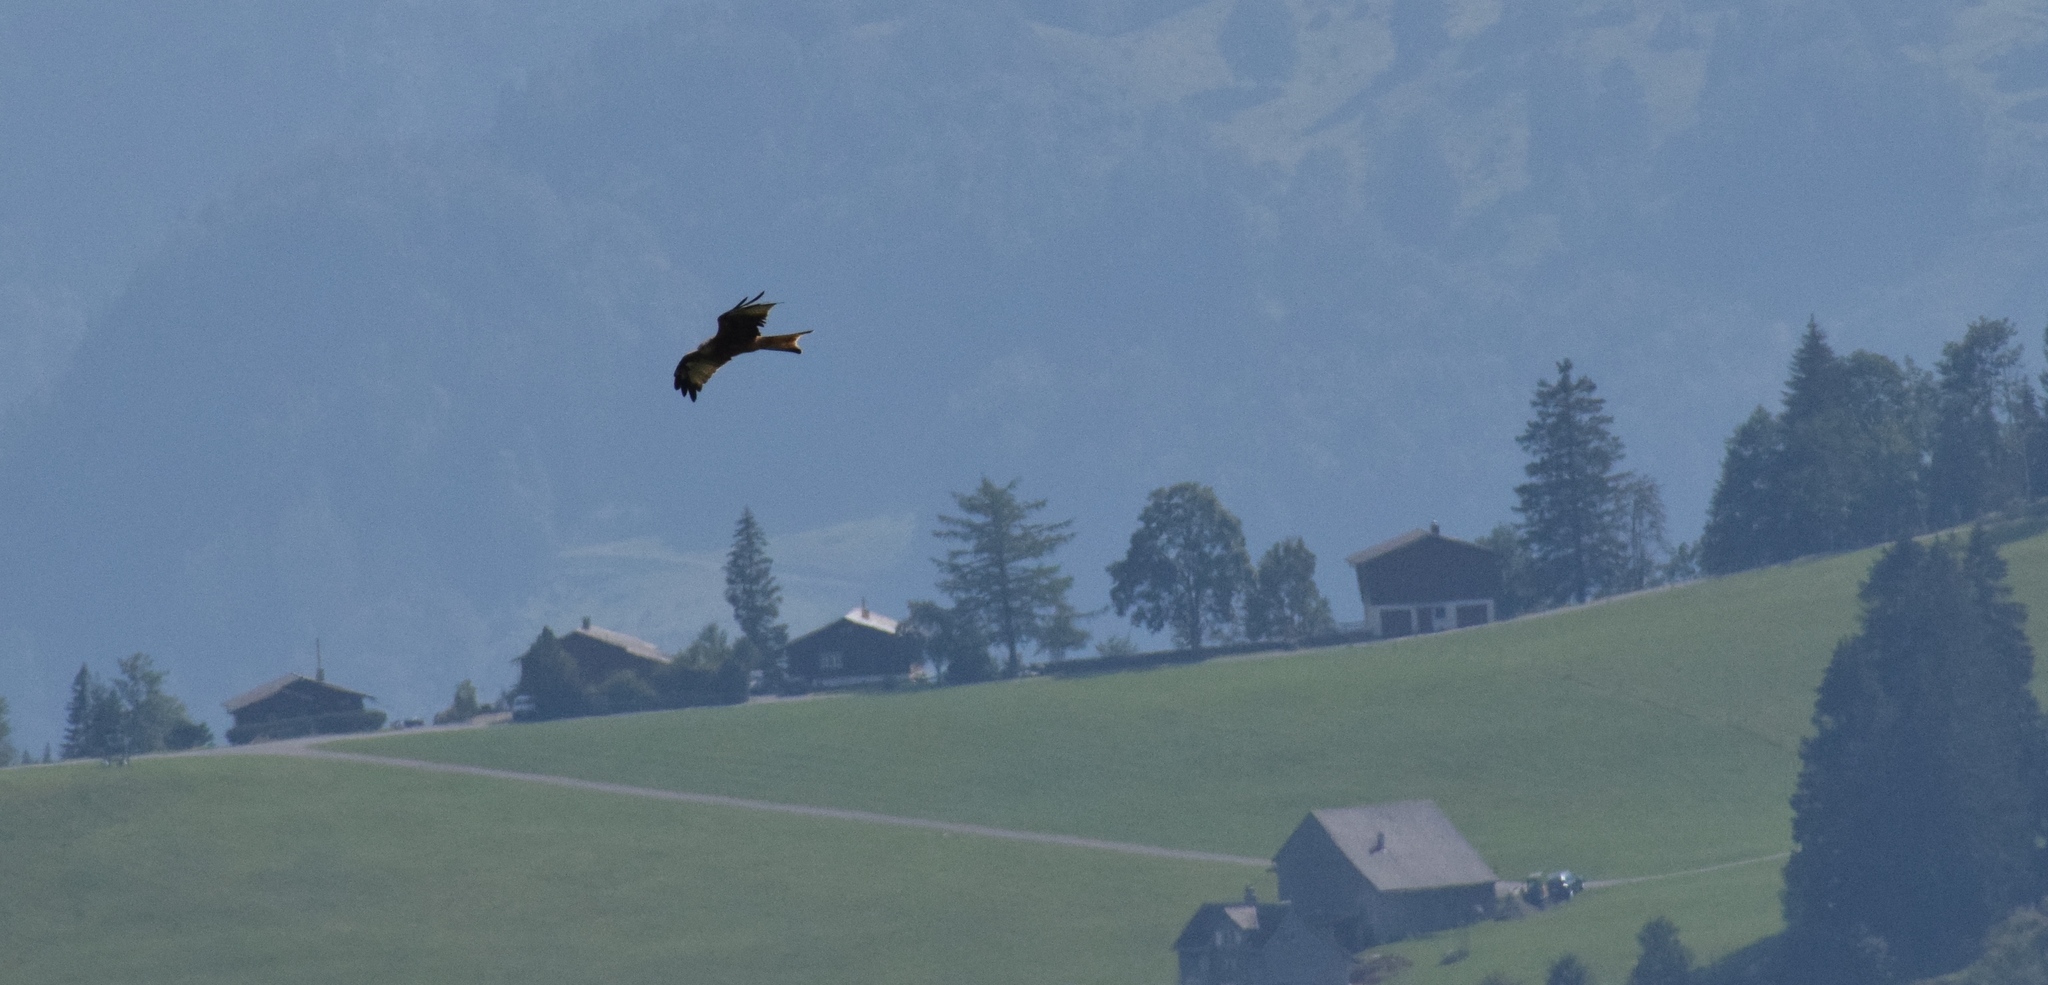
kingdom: Animalia
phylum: Chordata
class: Aves
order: Accipitriformes
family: Accipitridae
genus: Milvus
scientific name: Milvus milvus
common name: Red kite
